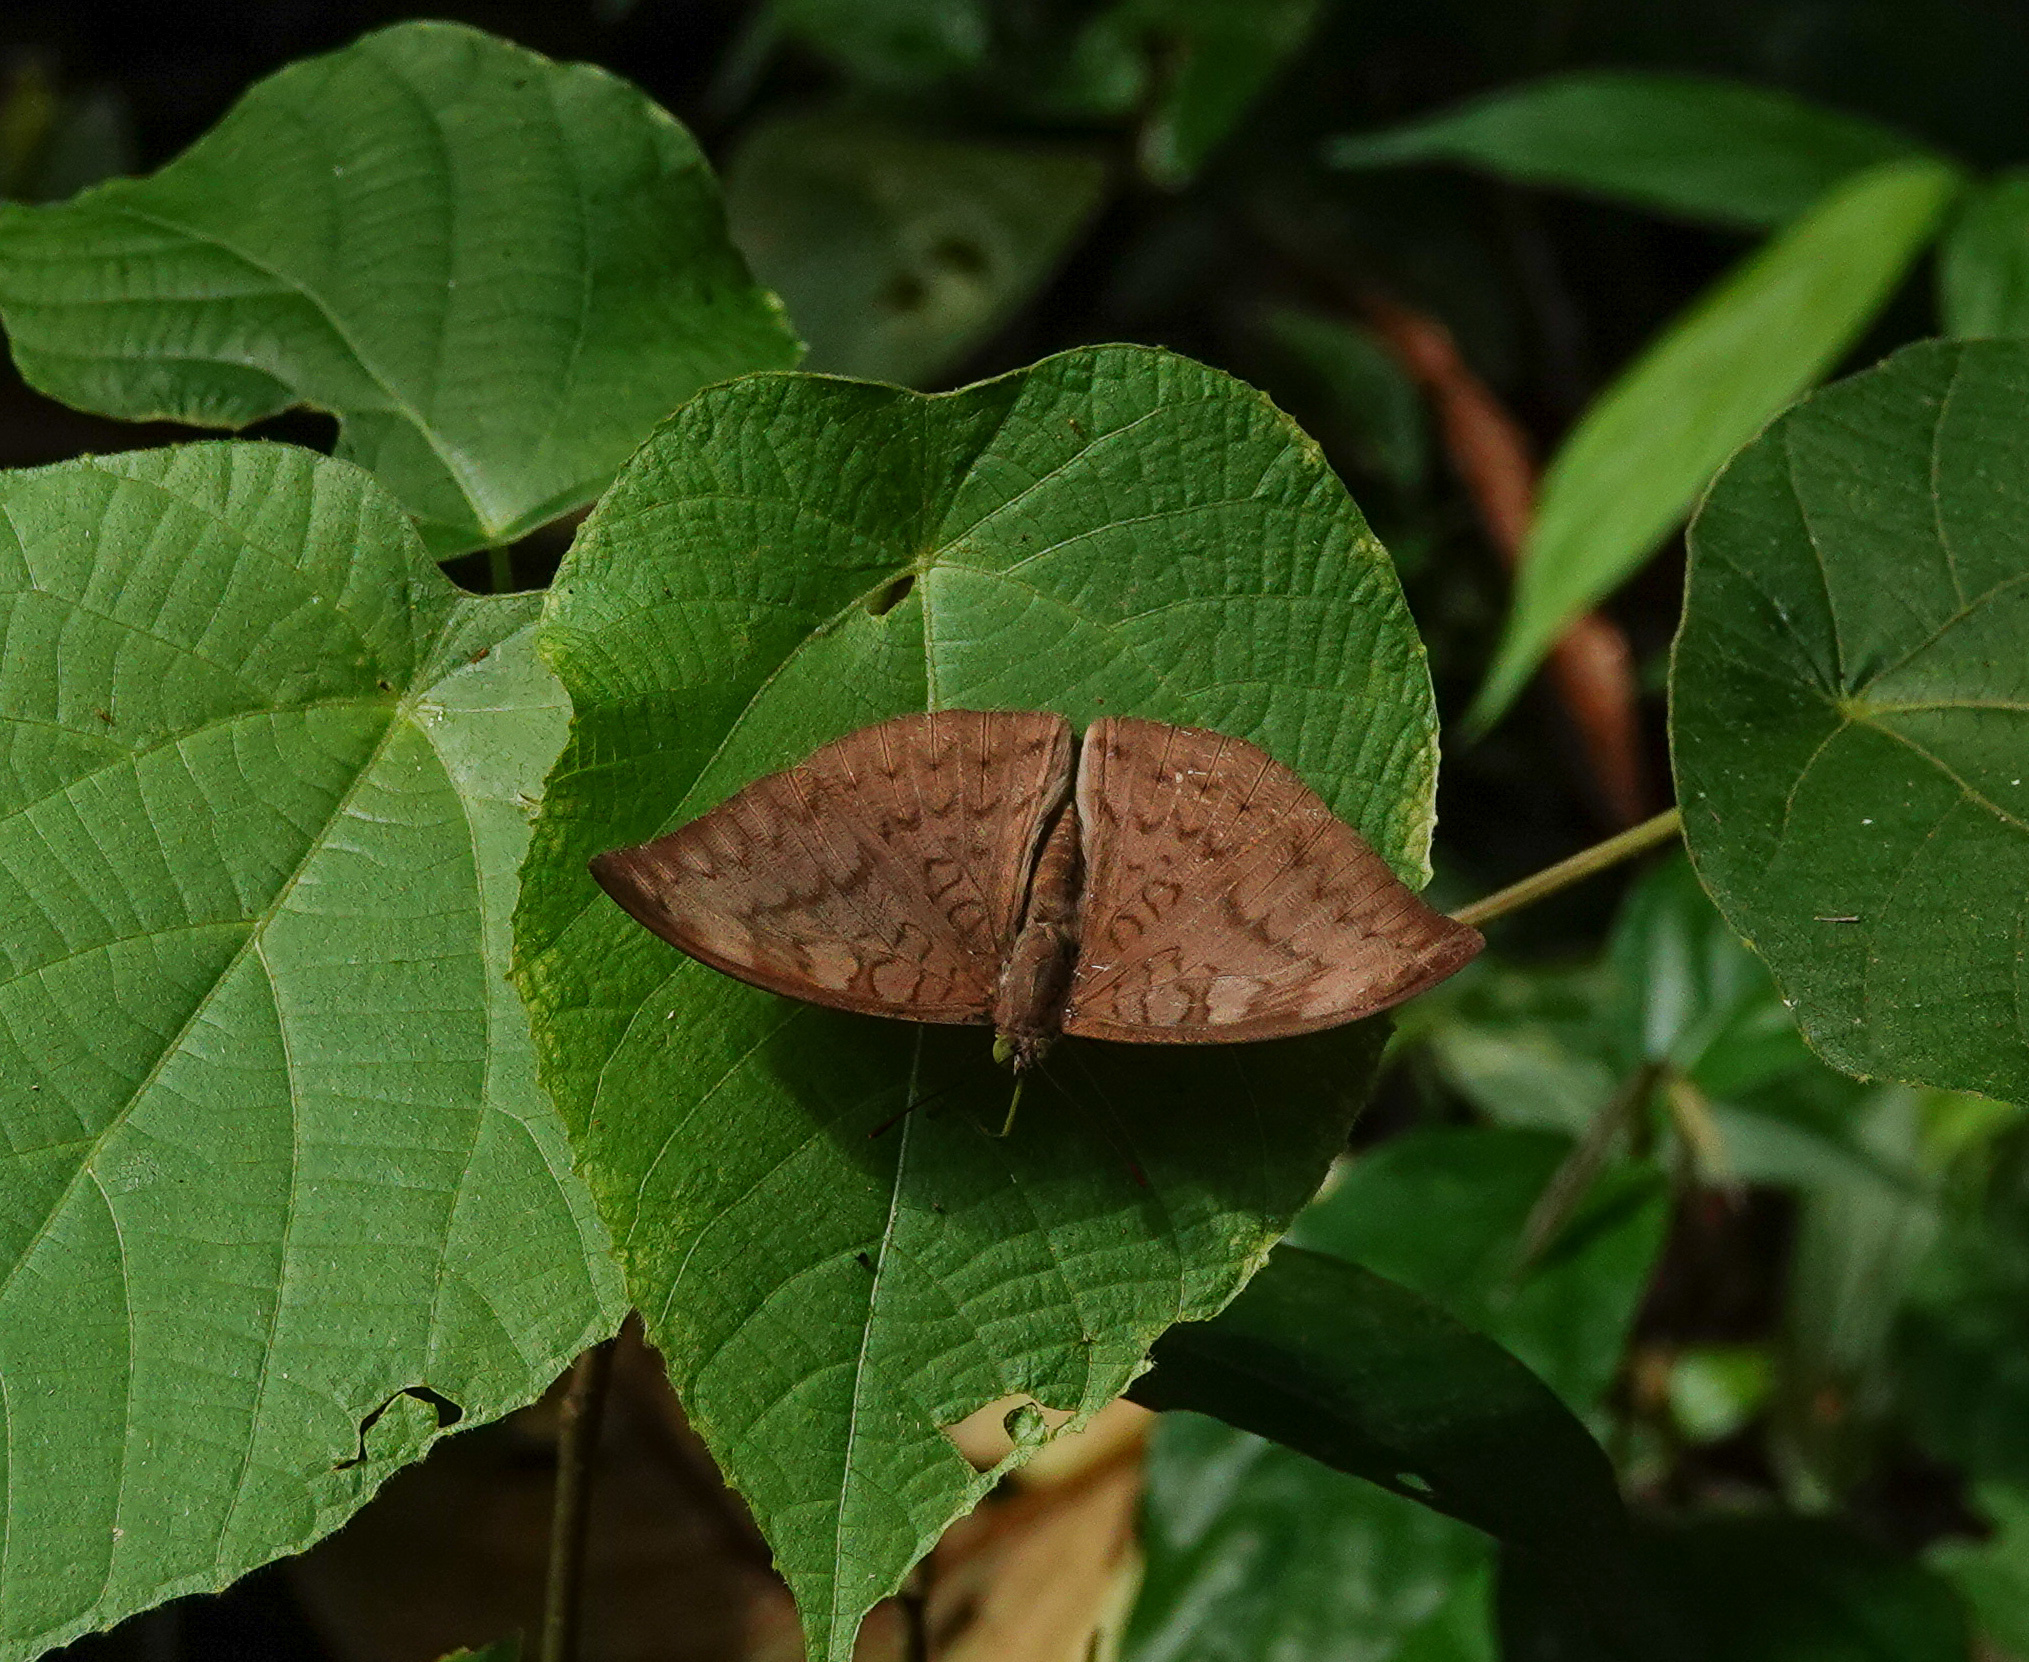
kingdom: Animalia
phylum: Arthropoda
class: Insecta
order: Lepidoptera
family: Nymphalidae
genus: Tanaecia
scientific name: Tanaecia jahnu
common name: Plain earl
